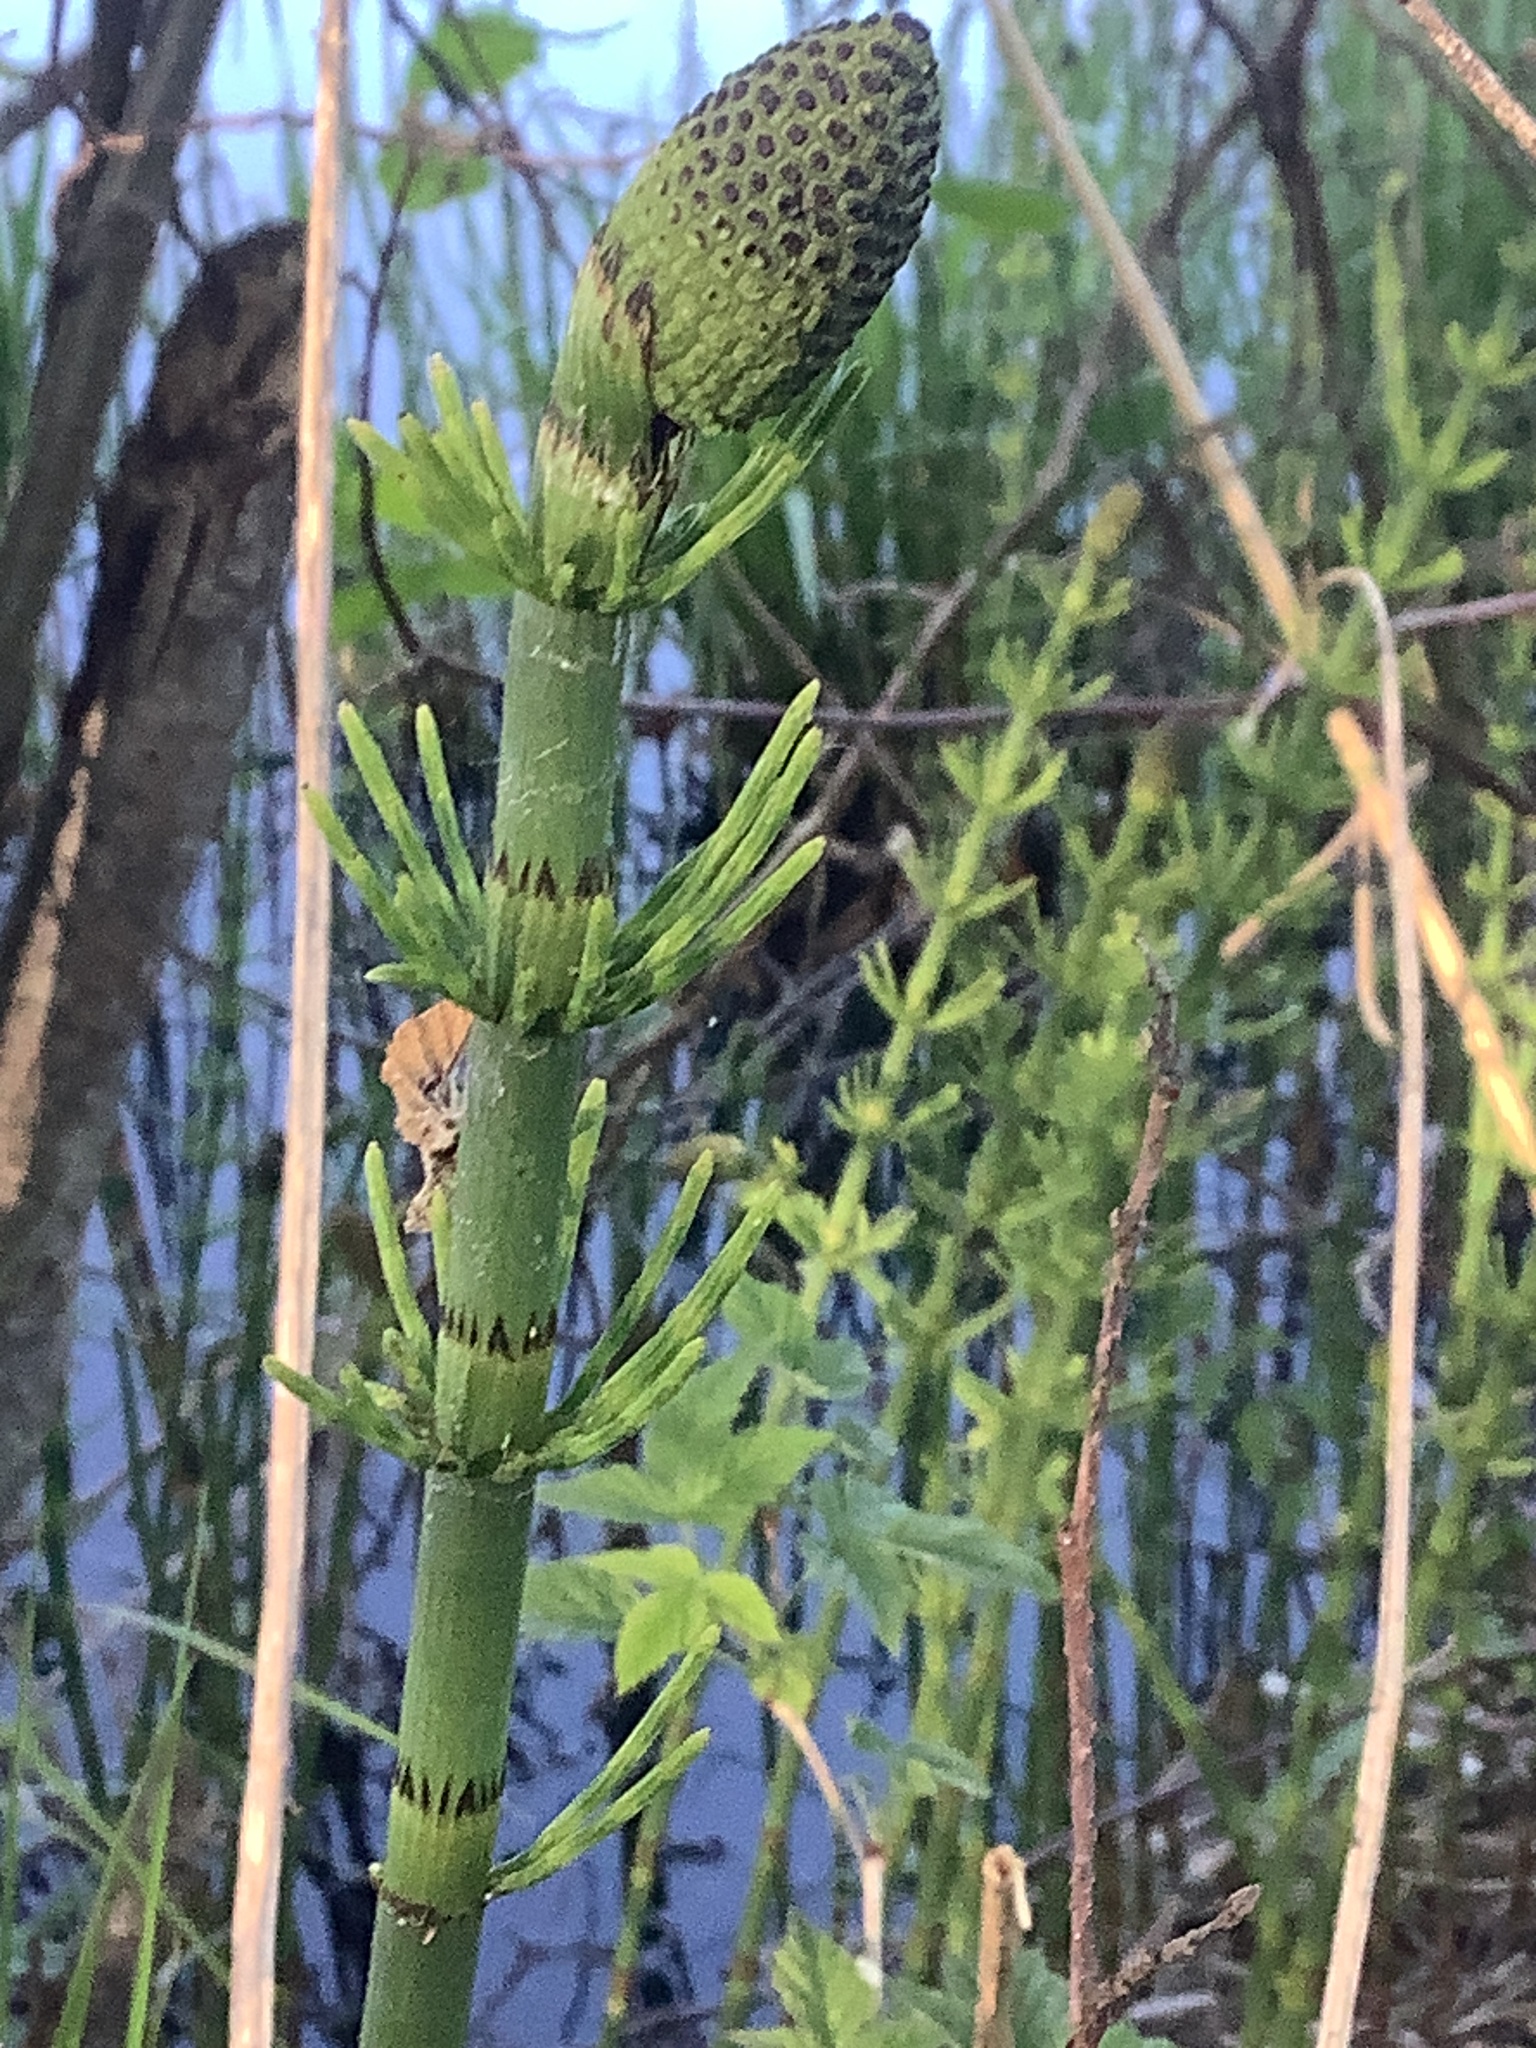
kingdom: Plantae
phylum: Tracheophyta
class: Polypodiopsida
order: Equisetales
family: Equisetaceae
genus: Equisetum
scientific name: Equisetum fluviatile
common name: Water horsetail
